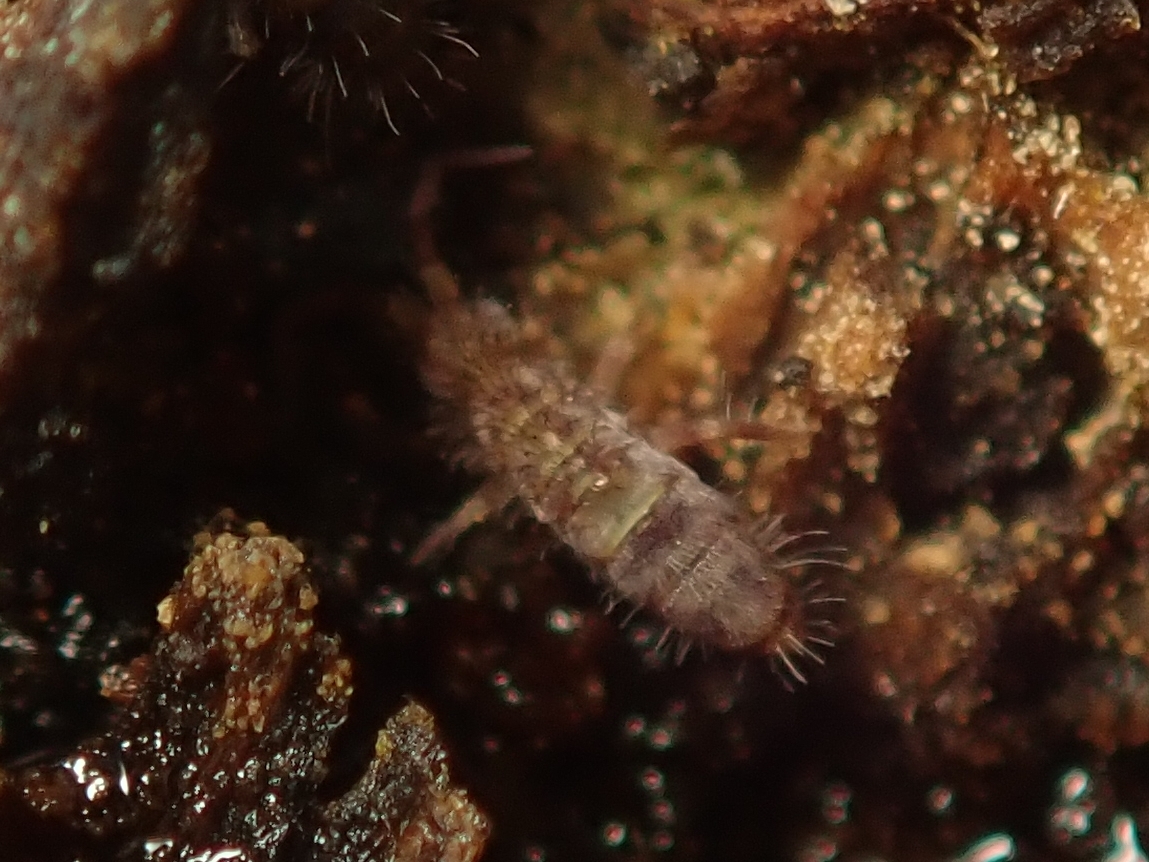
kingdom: Animalia
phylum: Arthropoda
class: Collembola
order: Entomobryomorpha
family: Orchesellidae
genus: Orchesella
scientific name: Orchesella cincta
